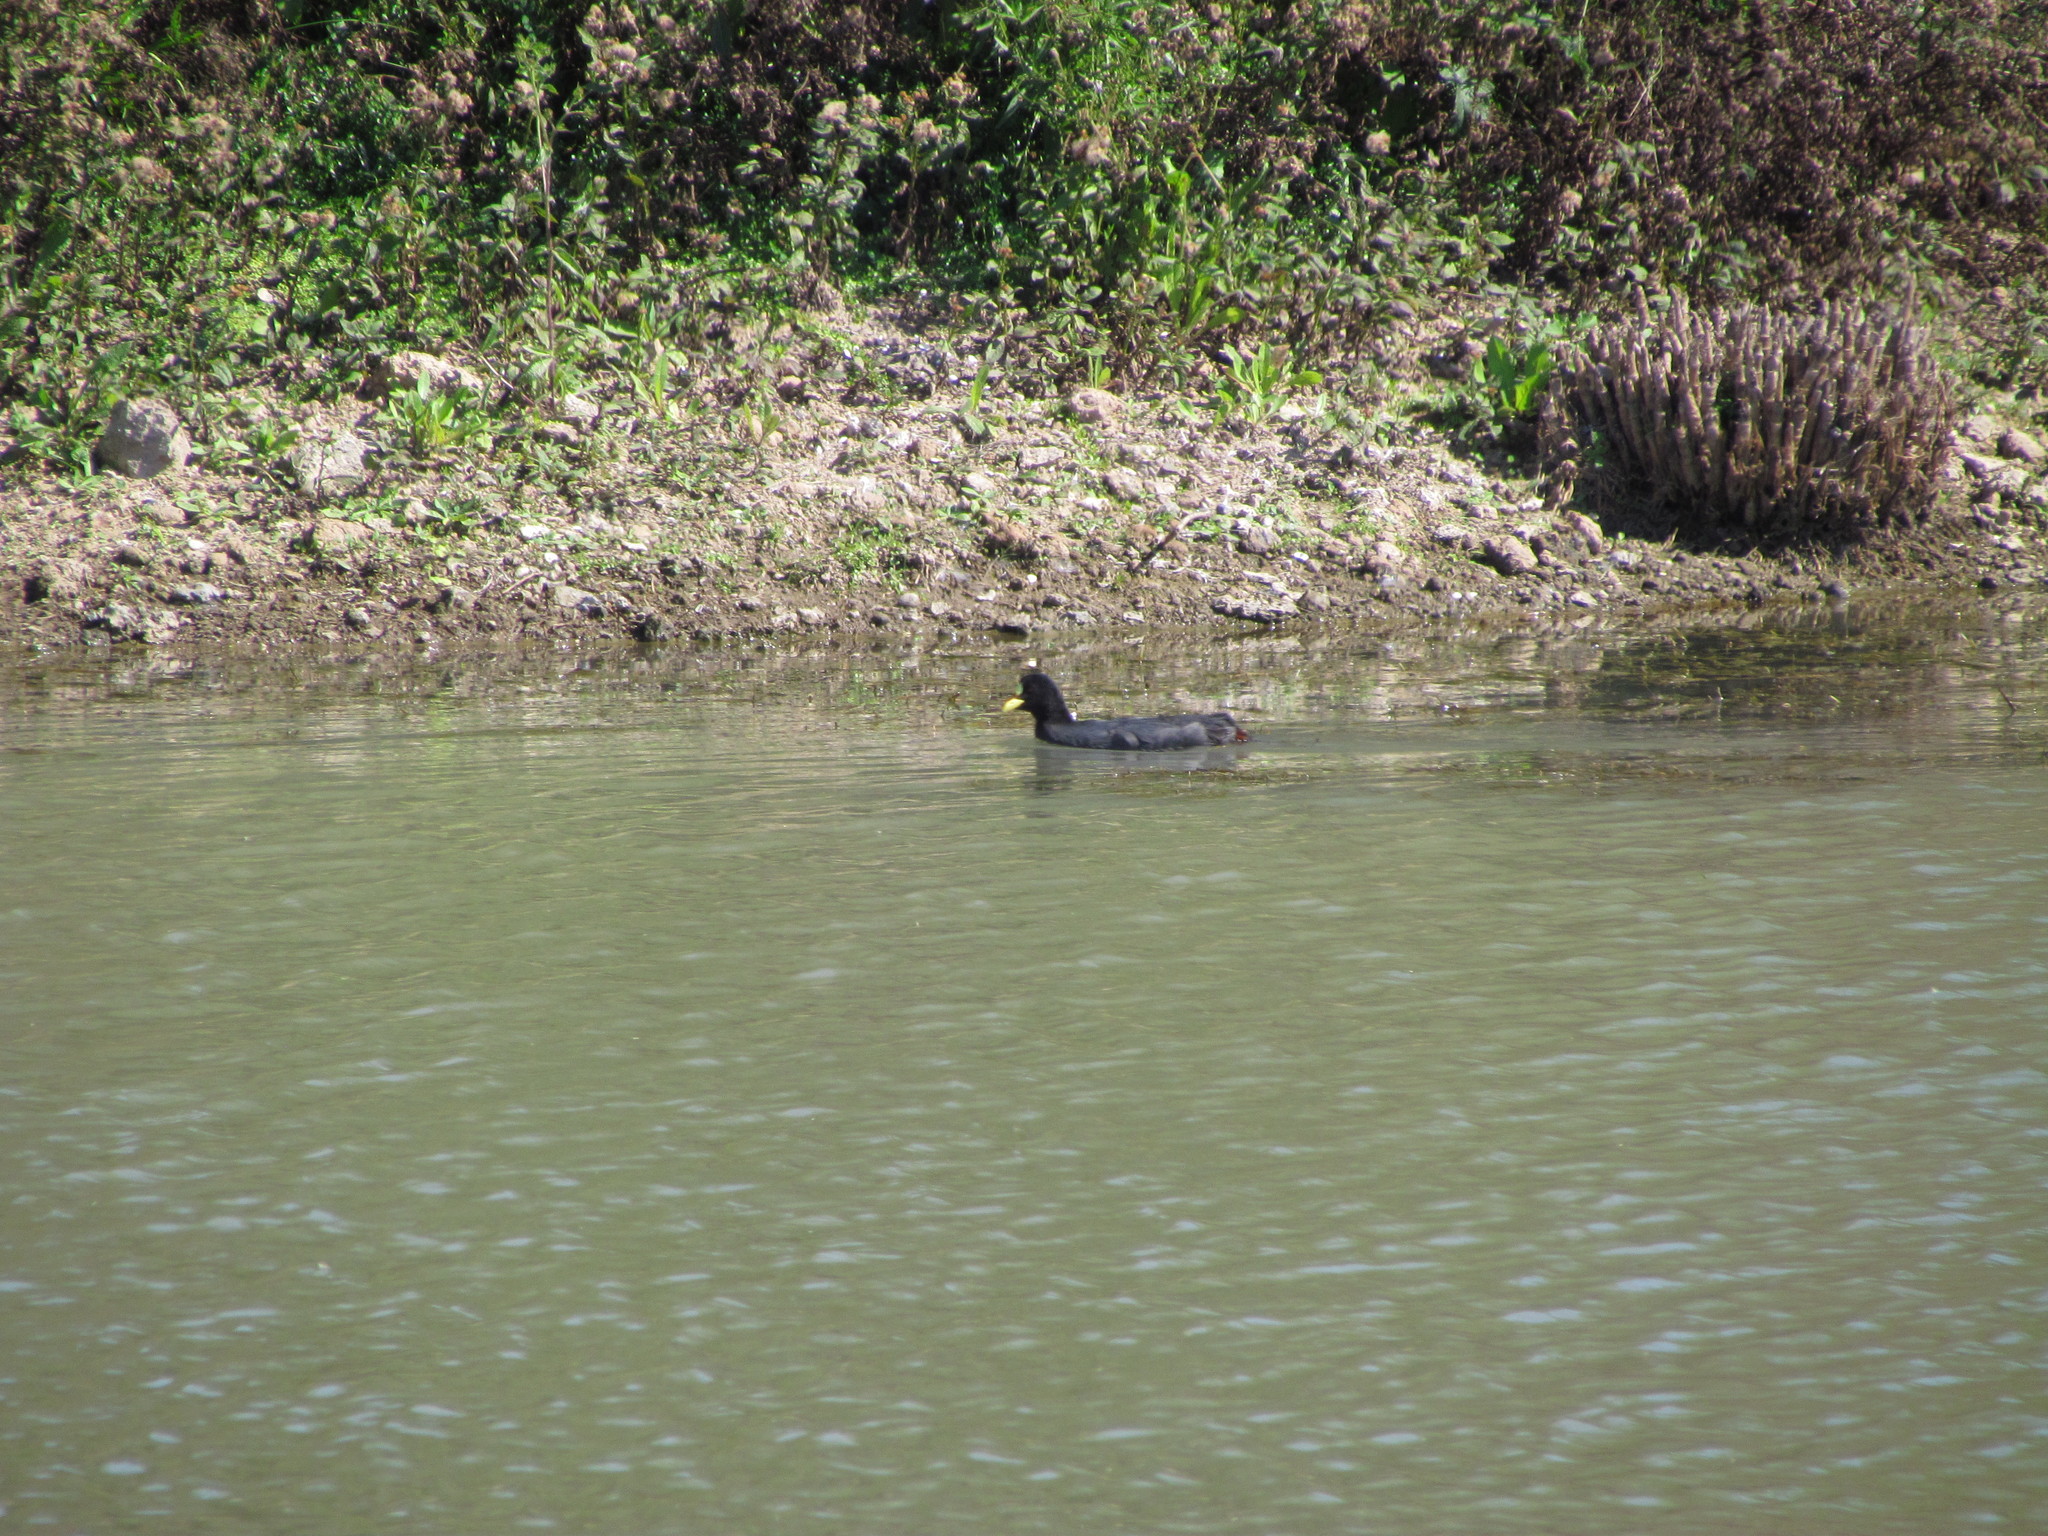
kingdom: Animalia
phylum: Chordata
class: Aves
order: Gruiformes
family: Rallidae
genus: Fulica
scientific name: Fulica armillata
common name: Red-gartered coot
